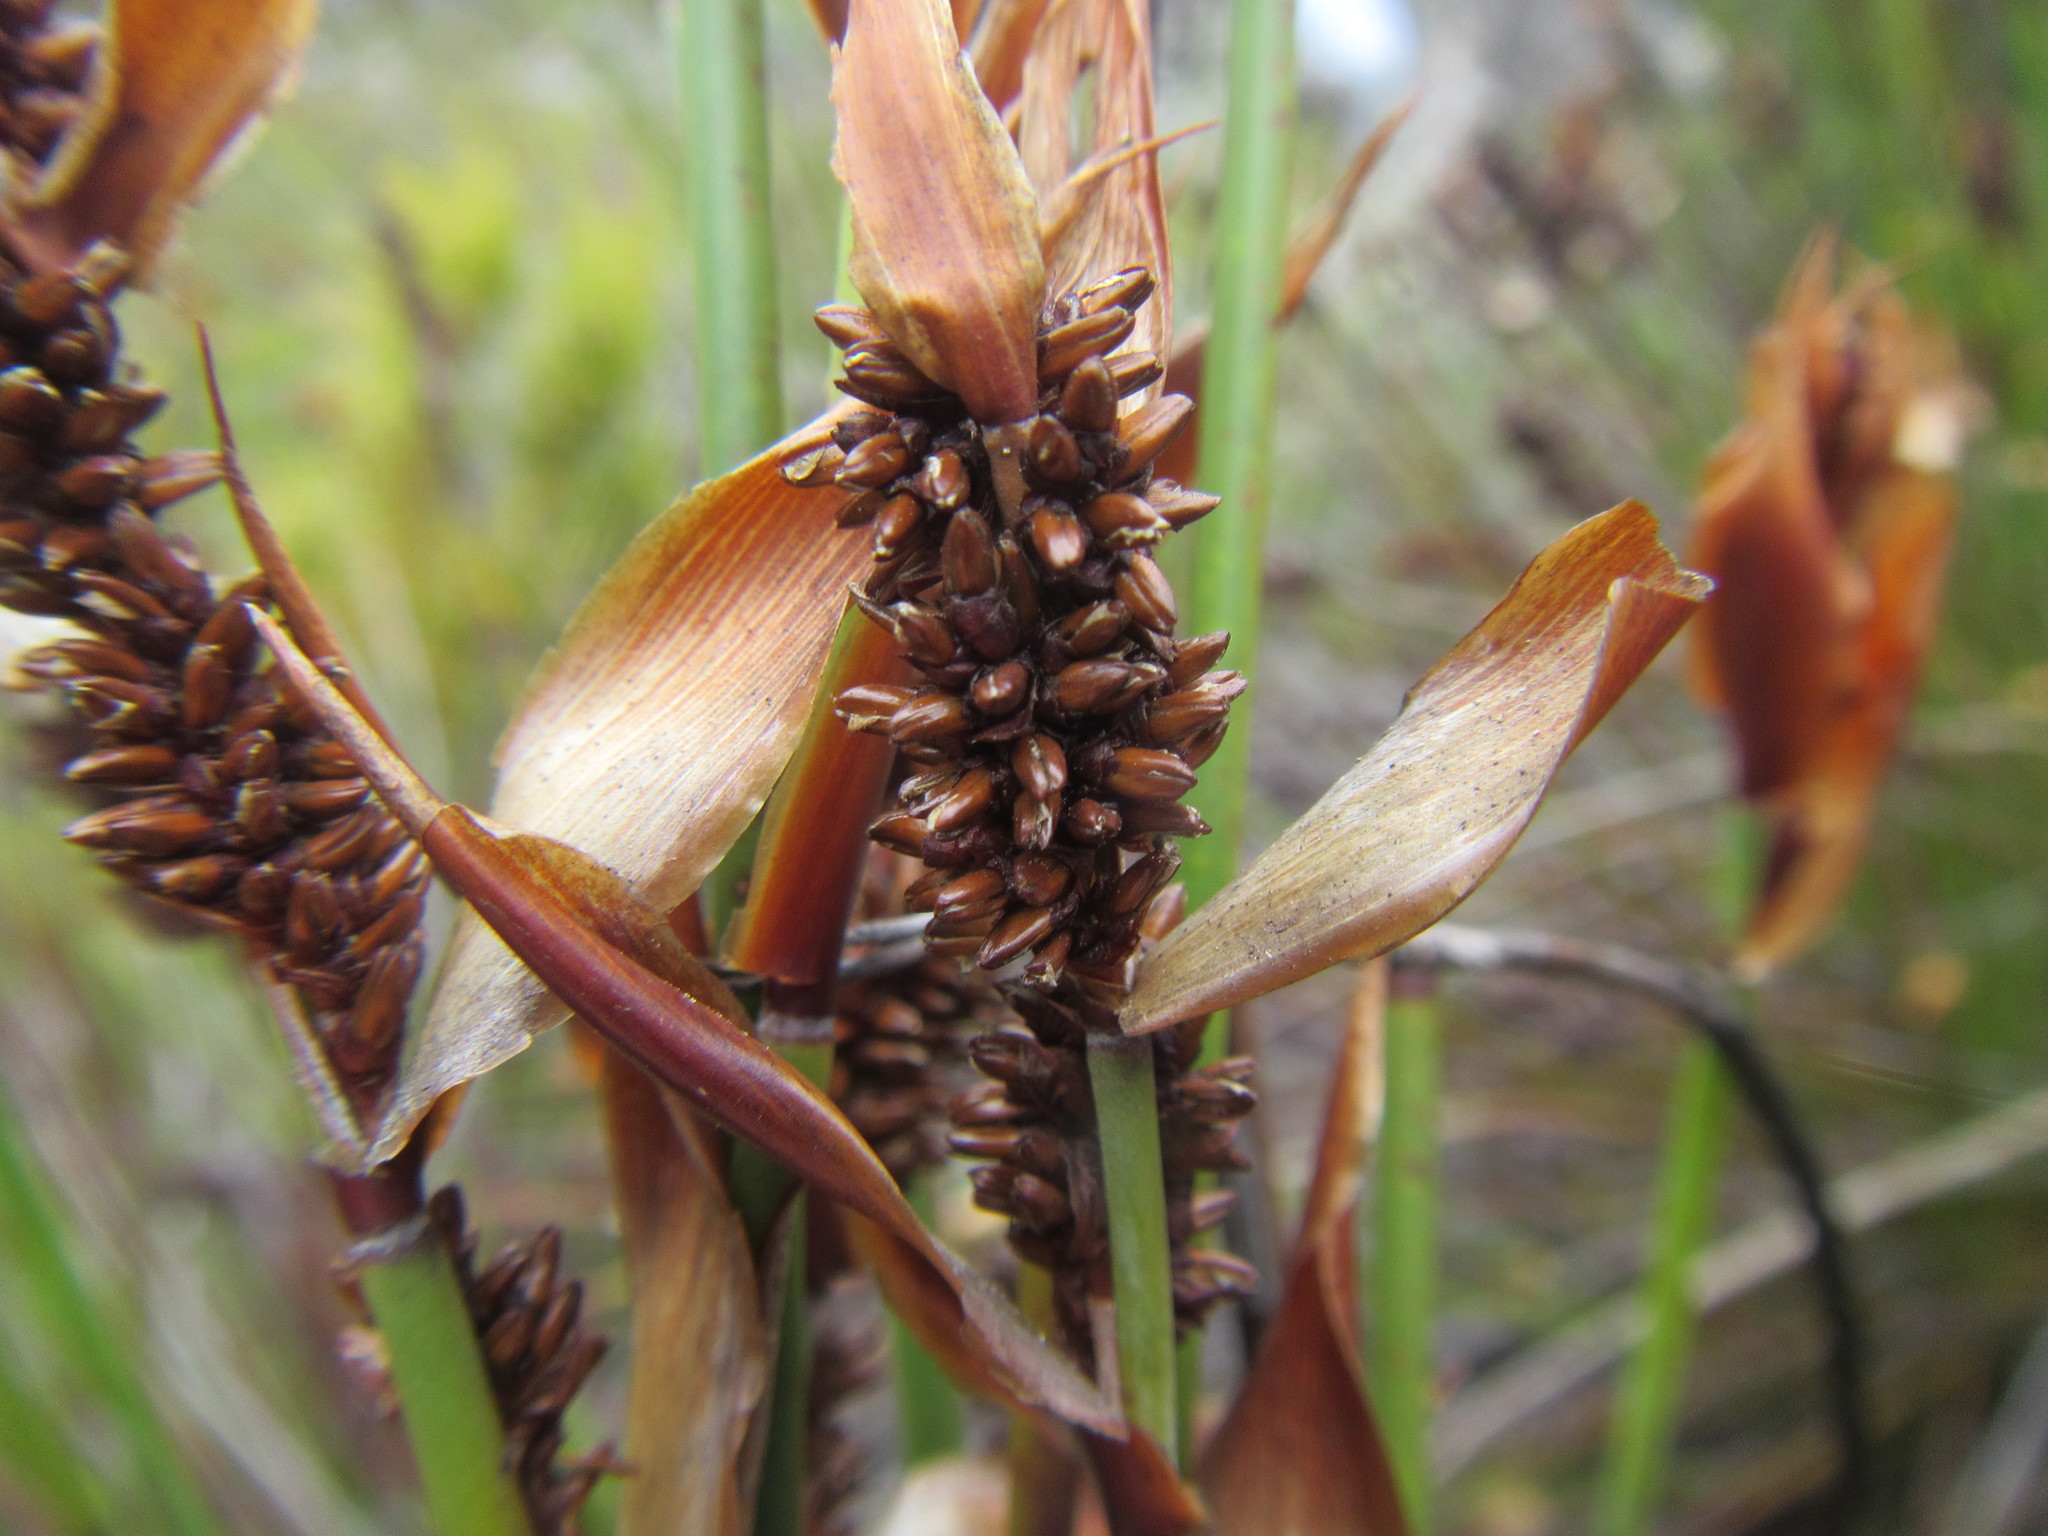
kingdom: Plantae
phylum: Tracheophyta
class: Liliopsida
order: Poales
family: Restionaceae
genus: Elegia
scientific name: Elegia ebracteata
